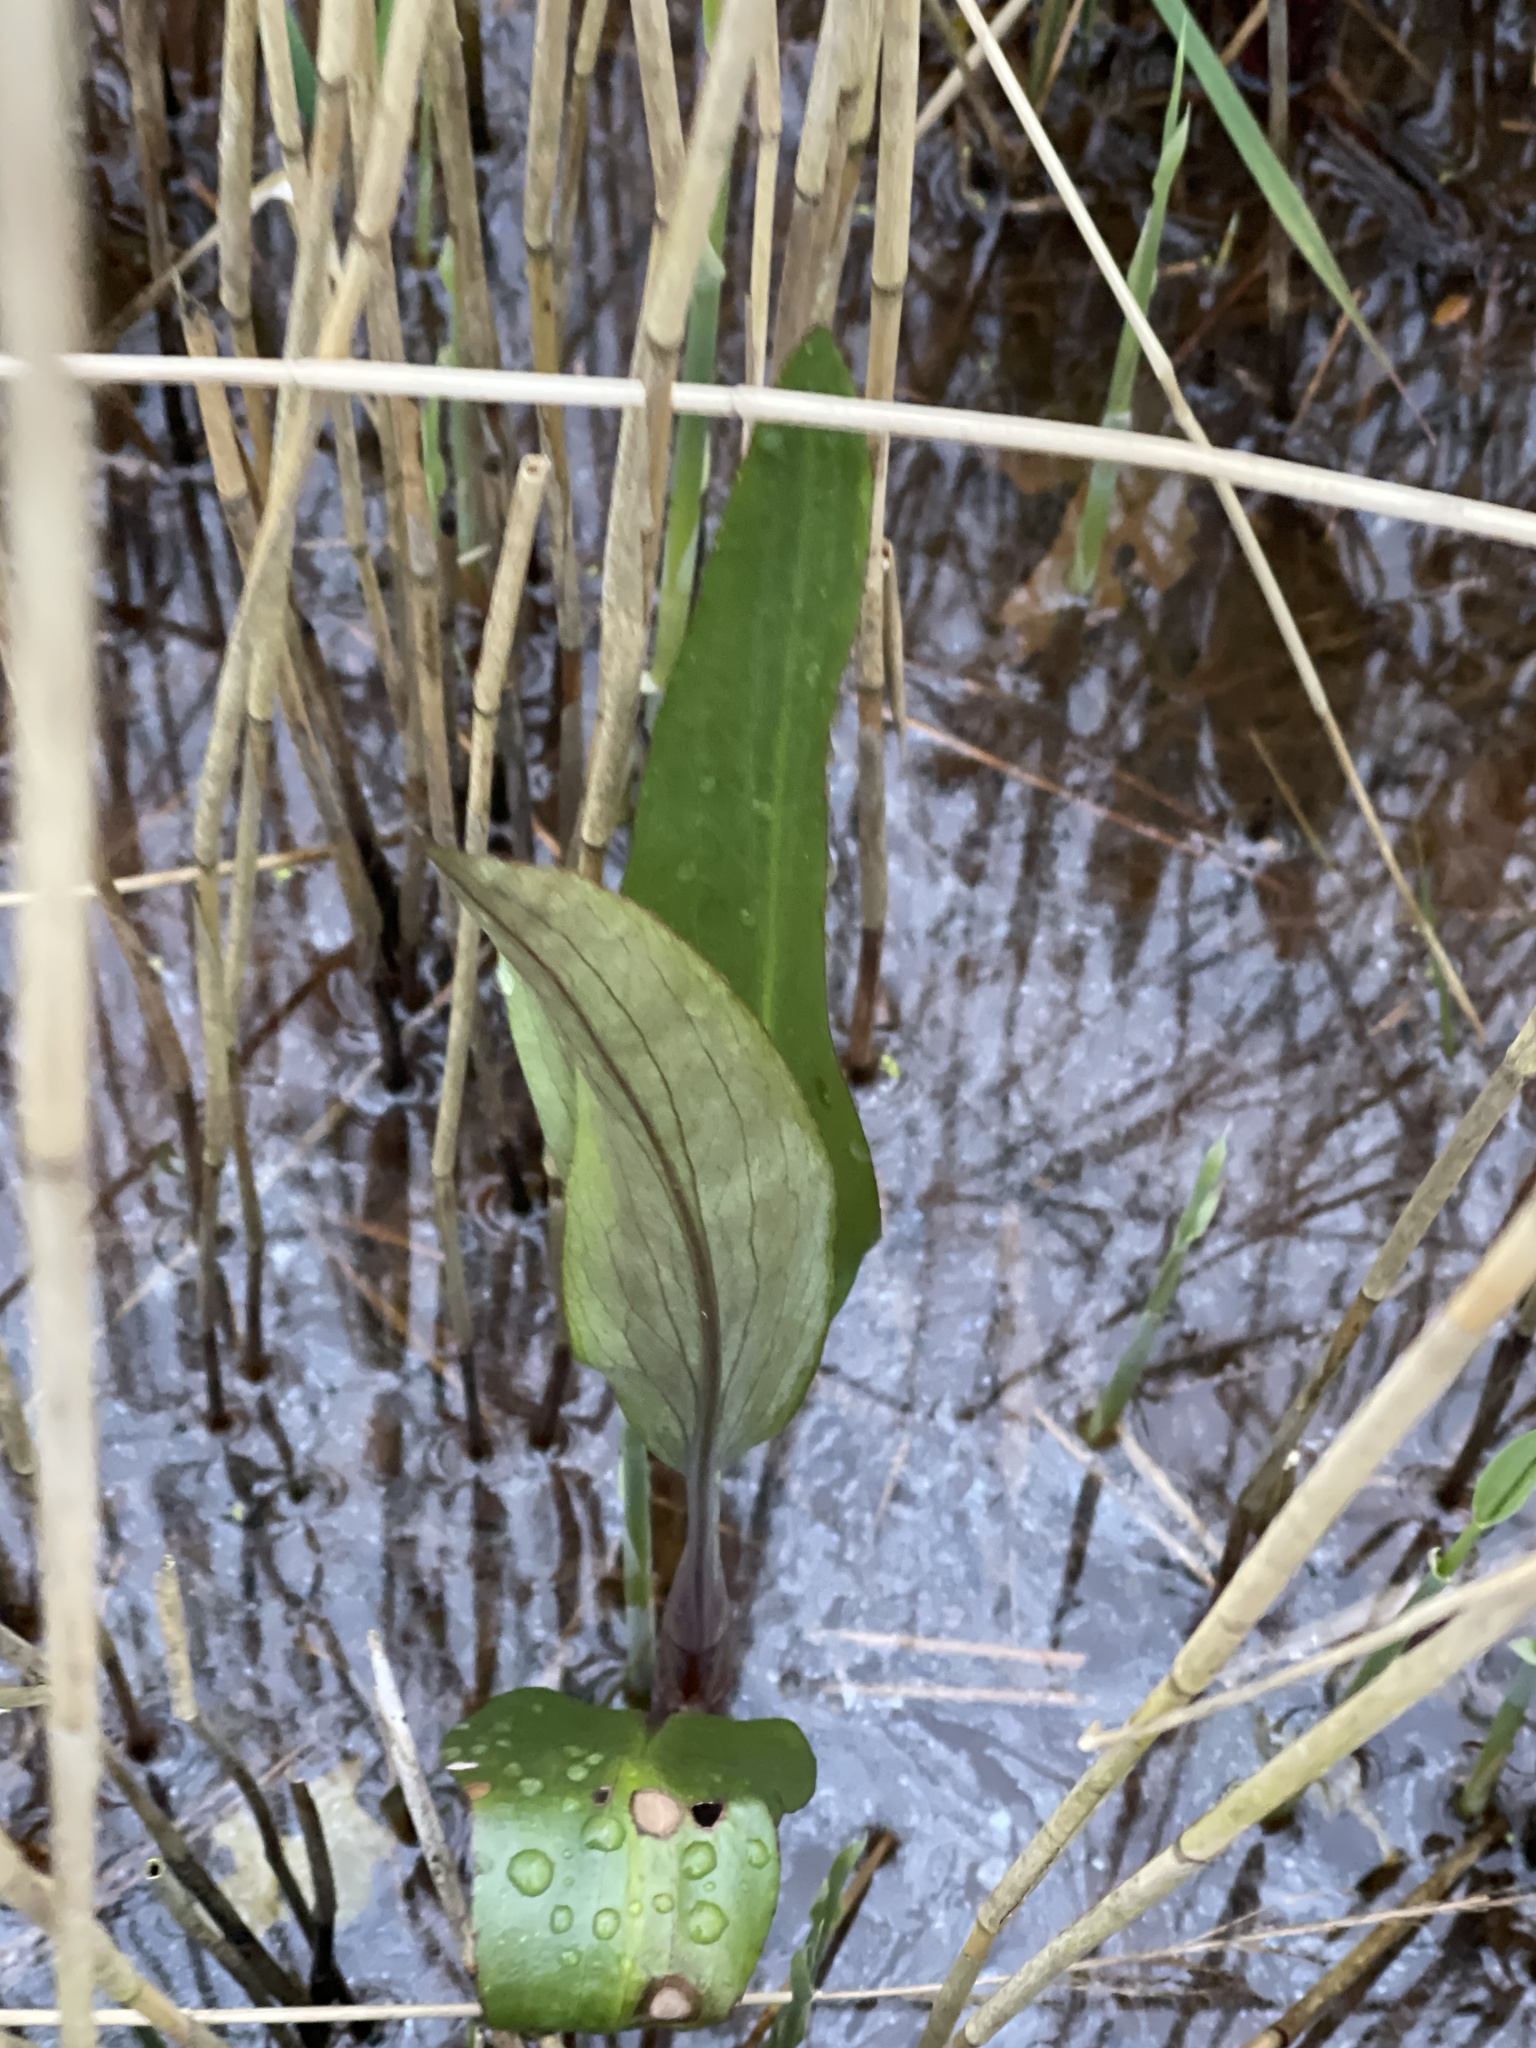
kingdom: Plantae
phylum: Tracheophyta
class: Magnoliopsida
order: Ranunculales
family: Ranunculaceae
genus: Ranunculus
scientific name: Ranunculus lingua
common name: Greater spearwort
